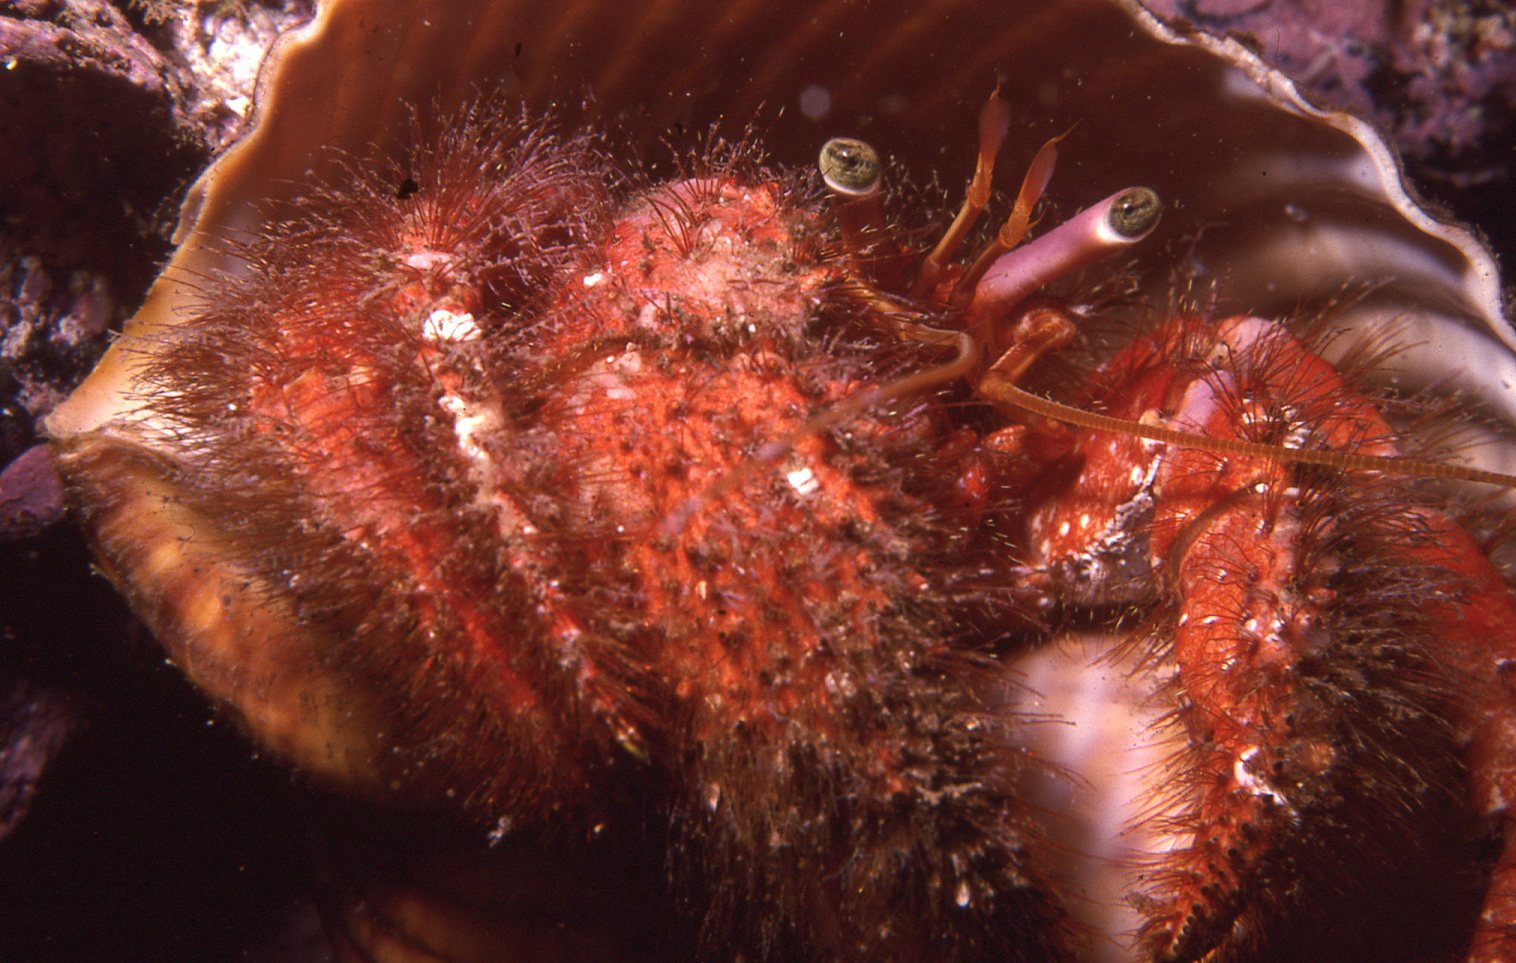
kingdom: Animalia
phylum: Arthropoda
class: Malacostraca
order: Decapoda
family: Diogenidae
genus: Dardanus
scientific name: Dardanus crassimanus
